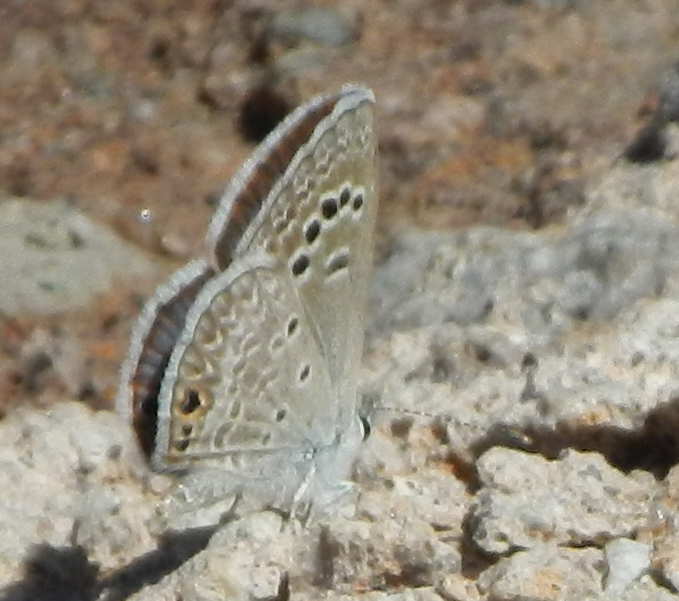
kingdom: Animalia
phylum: Arthropoda
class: Insecta
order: Lepidoptera
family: Lycaenidae
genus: Echinargus
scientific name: Echinargus isola
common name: Reakirt's blue
